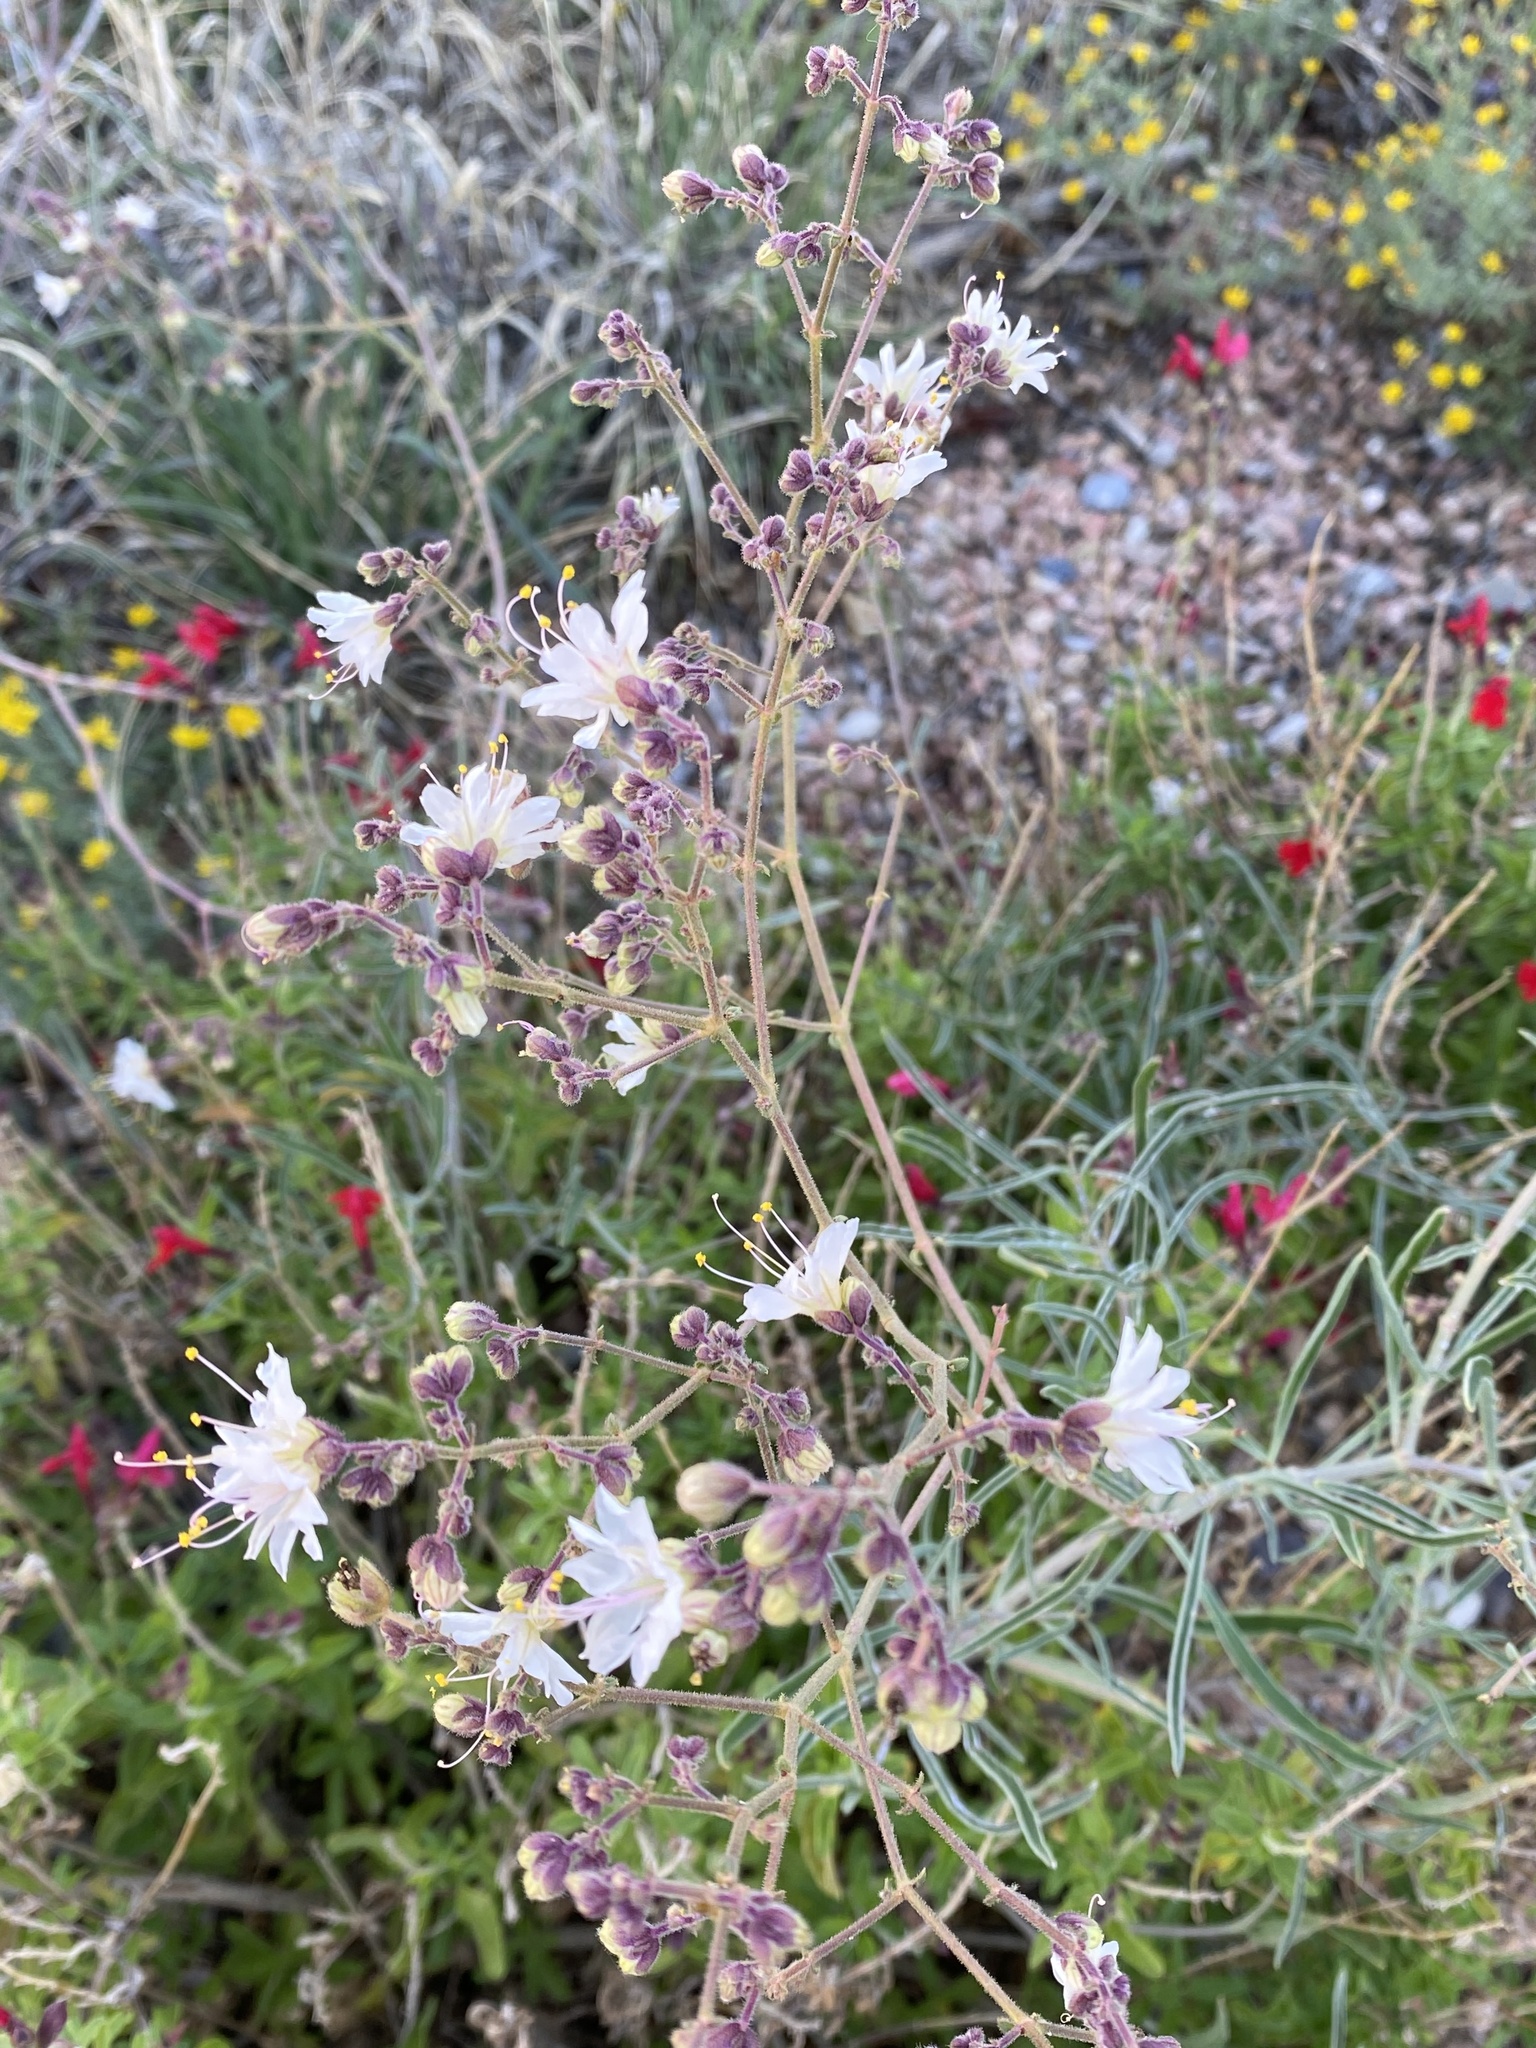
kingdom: Plantae
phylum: Tracheophyta
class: Magnoliopsida
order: Caryophyllales
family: Nyctaginaceae
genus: Mirabilis
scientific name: Mirabilis linearis
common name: Linear-leaved four-o'clock
